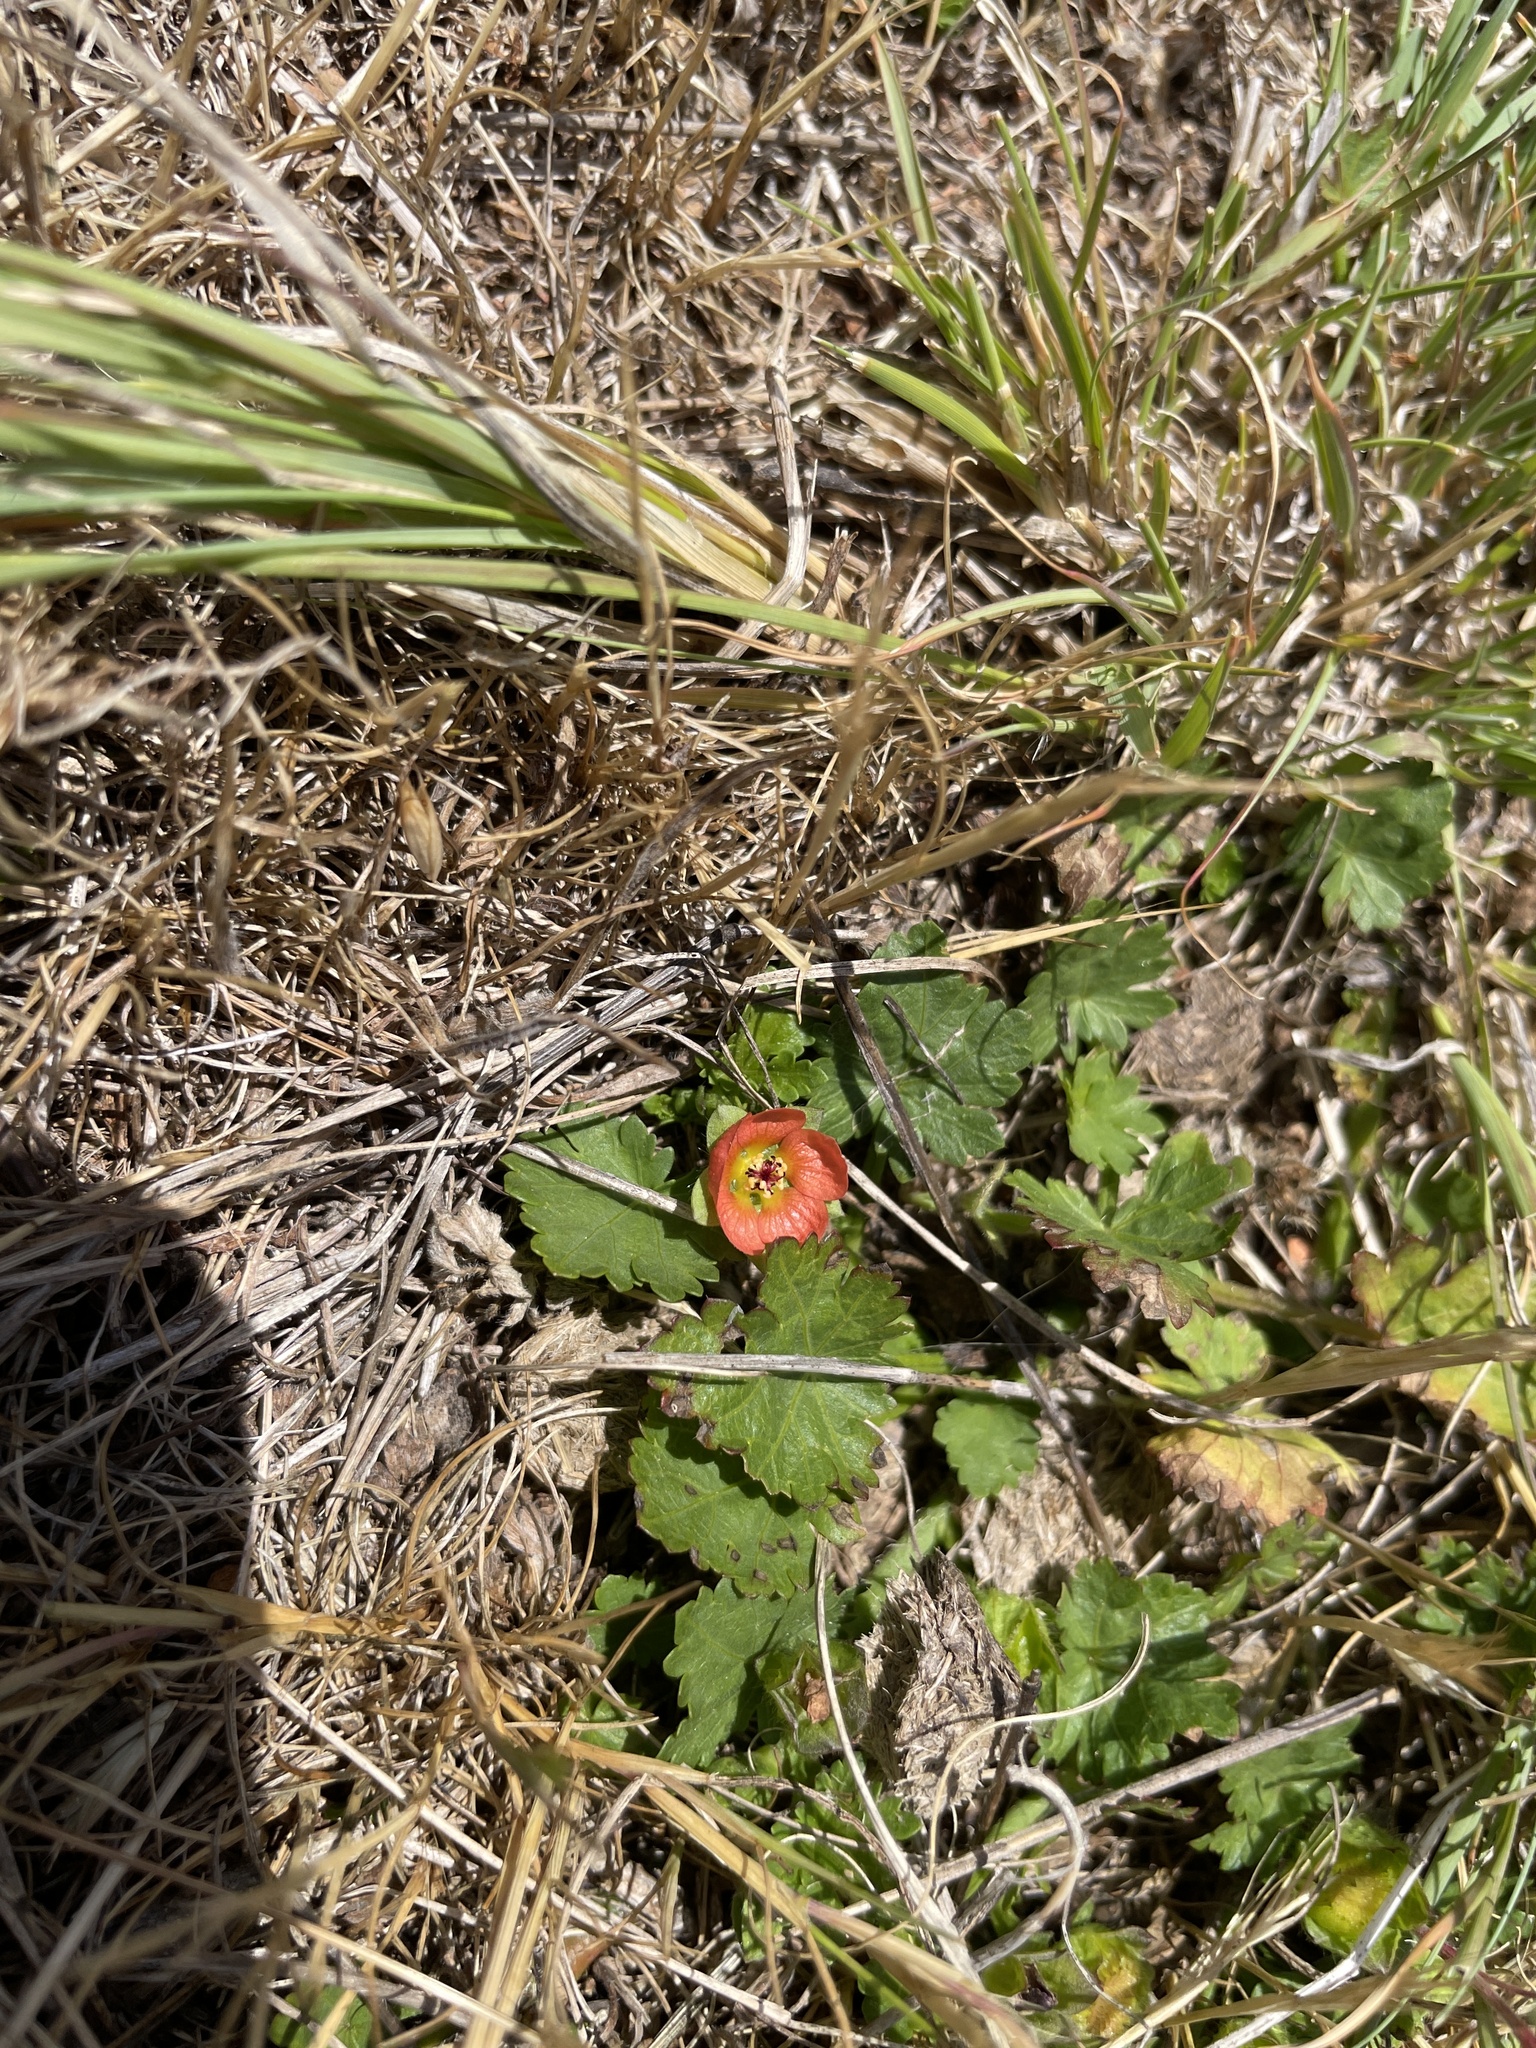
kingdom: Plantae
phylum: Tracheophyta
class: Magnoliopsida
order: Malvales
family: Malvaceae
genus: Modiola
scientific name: Modiola caroliniana
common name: Carolina bristlemallow
